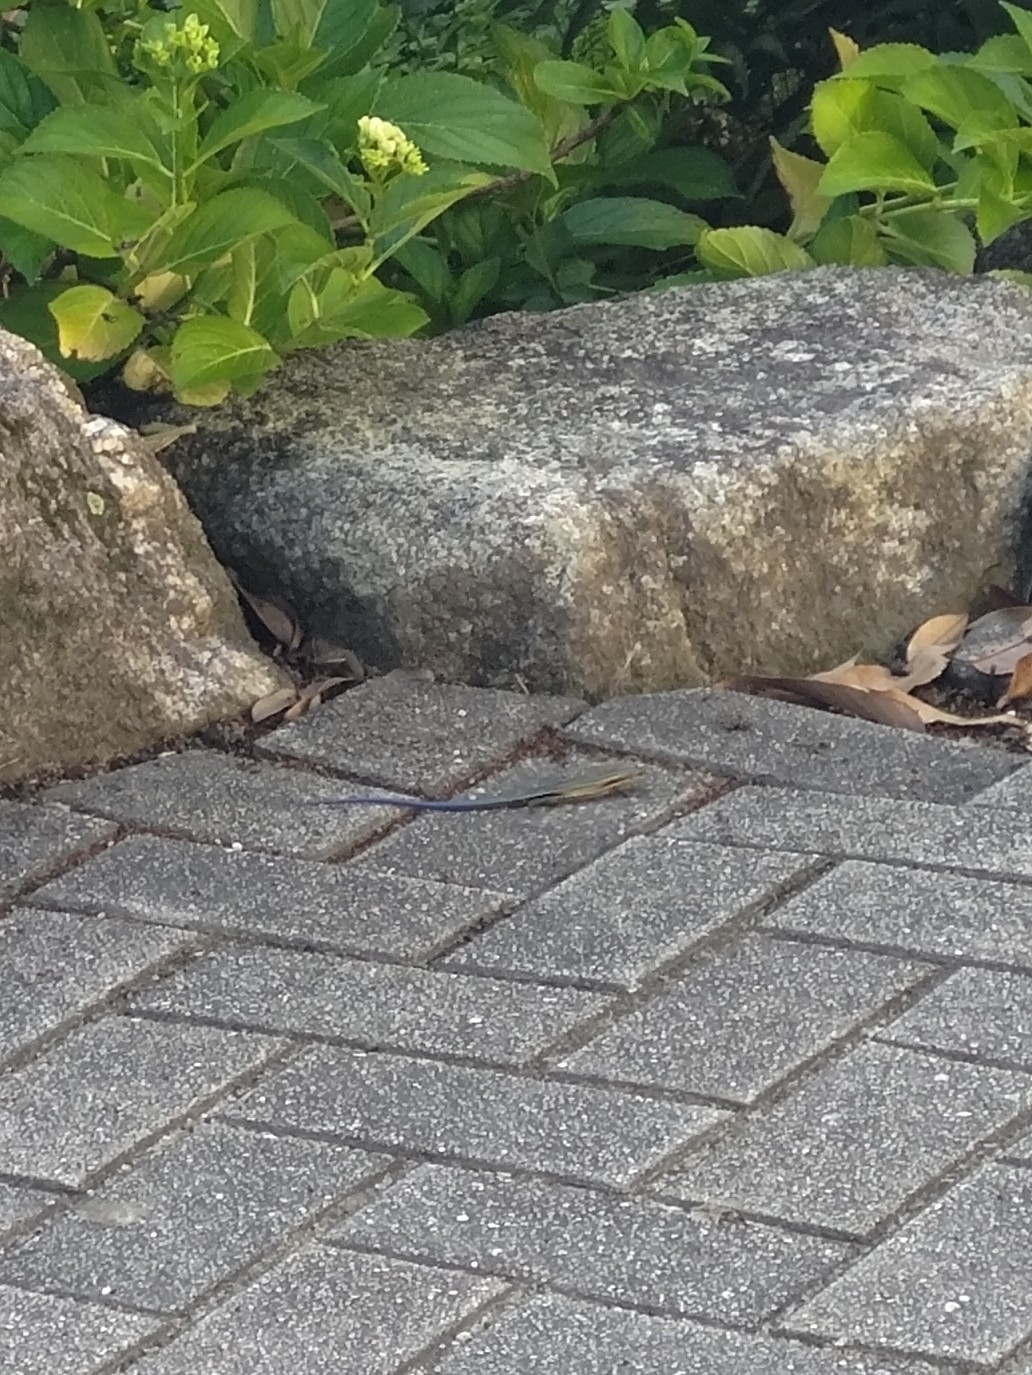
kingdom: Animalia
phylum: Chordata
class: Squamata
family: Scincidae
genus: Plestiodon
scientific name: Plestiodon japonicus
